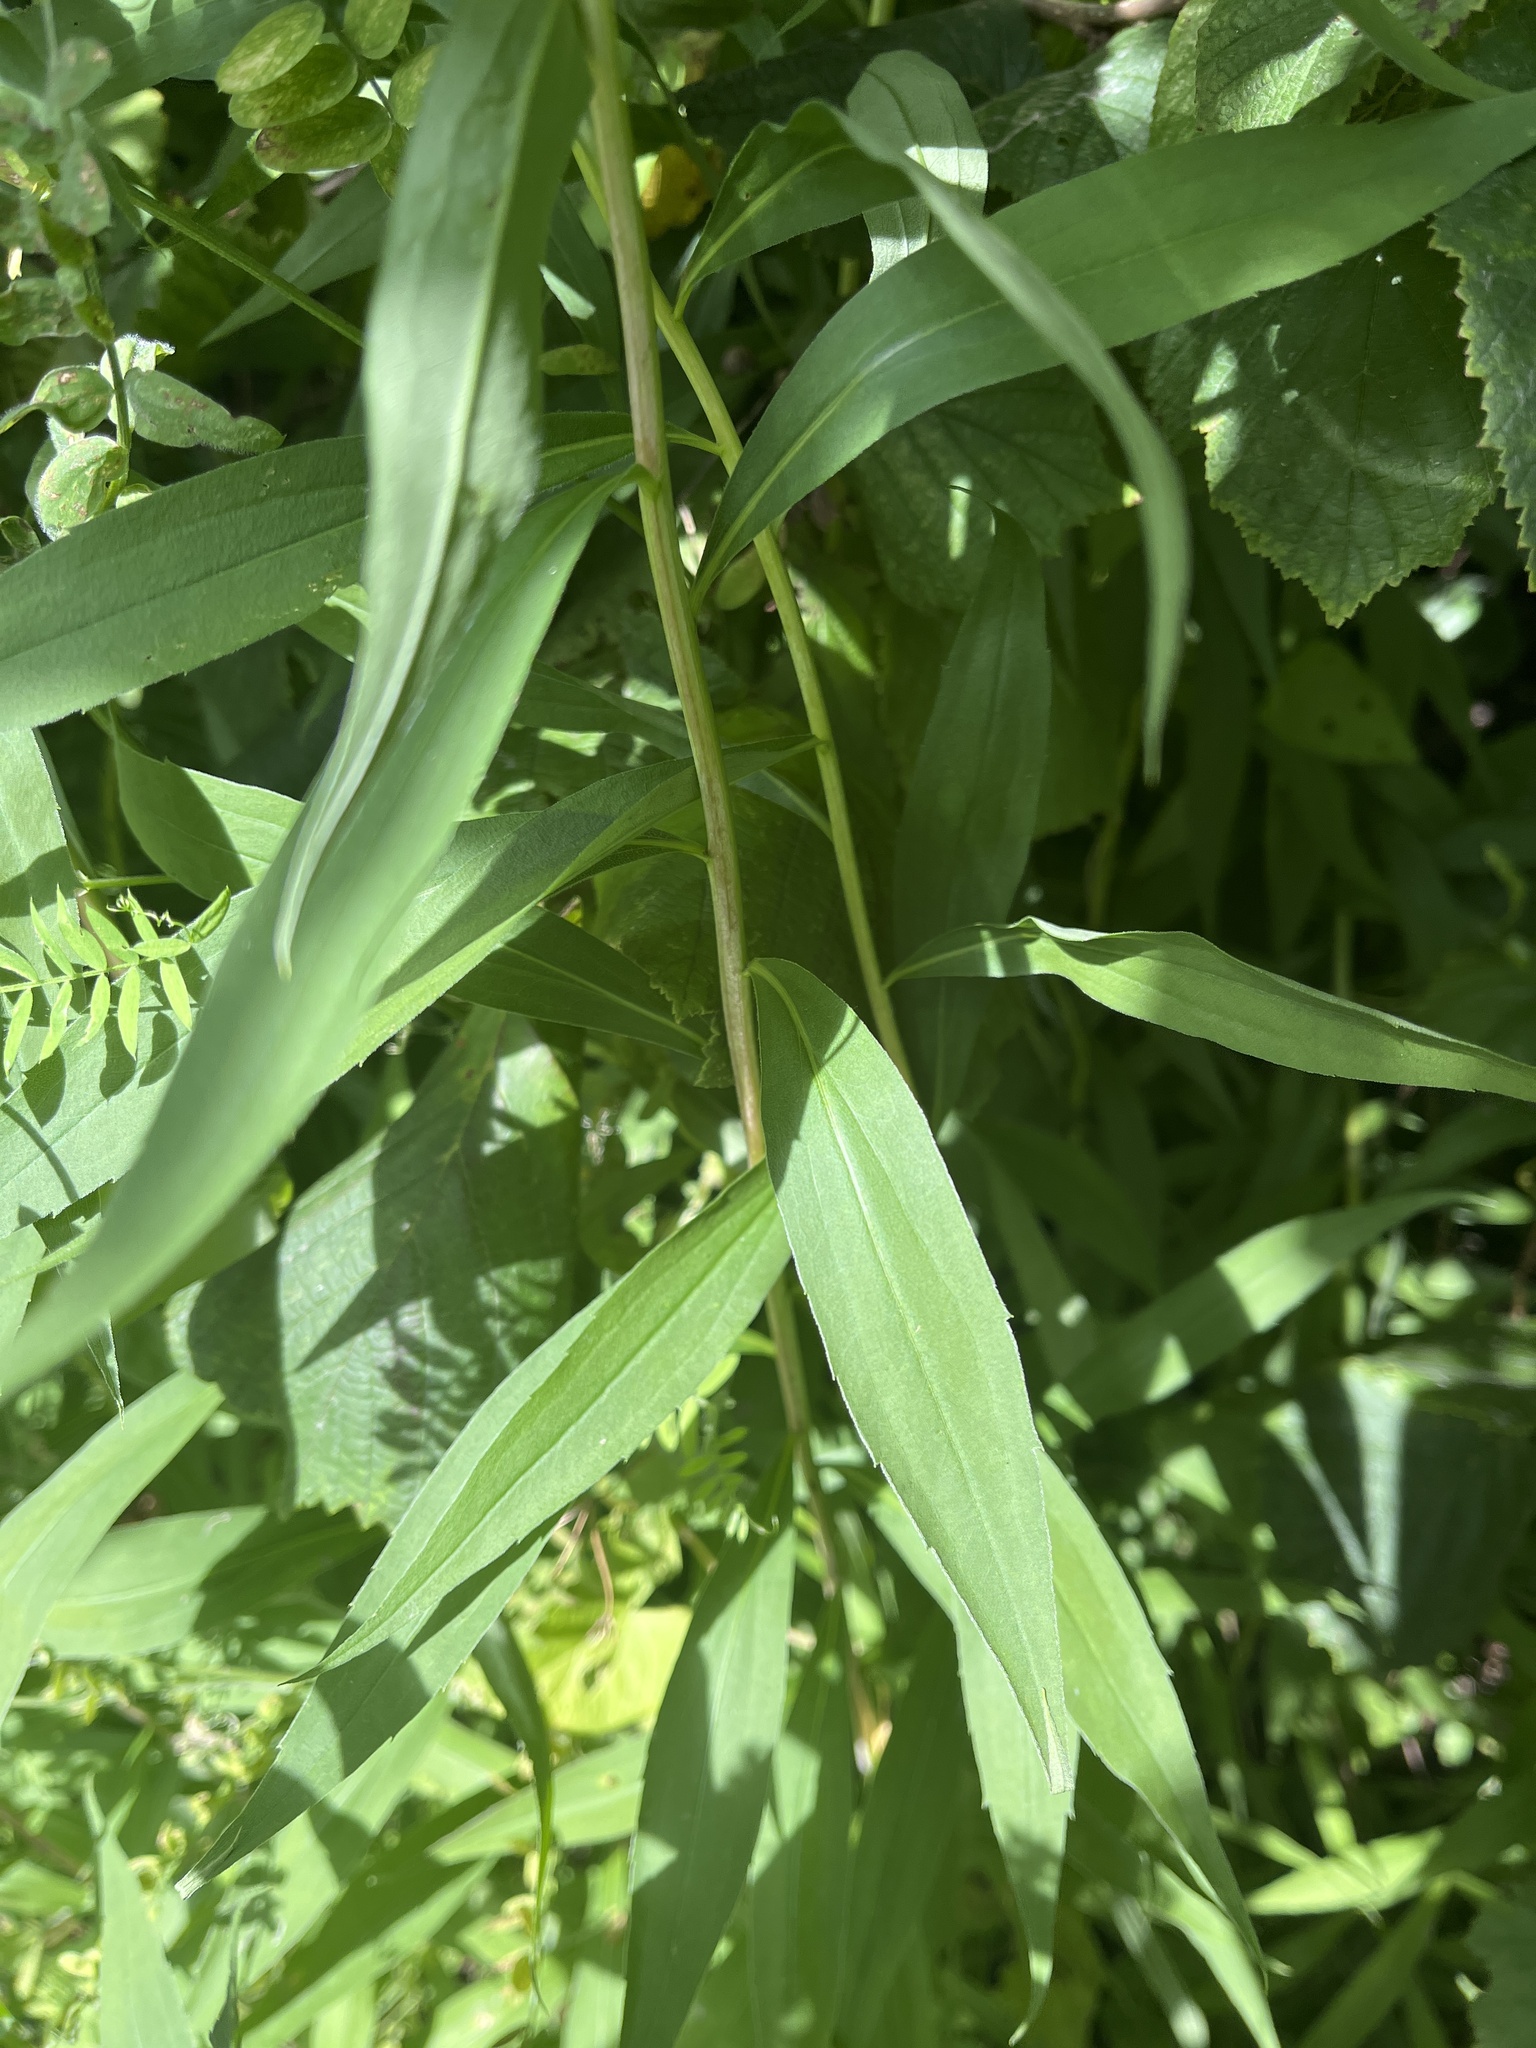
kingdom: Plantae
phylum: Tracheophyta
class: Magnoliopsida
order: Asterales
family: Asteraceae
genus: Solidago
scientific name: Solidago gigantea
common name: Giant goldenrod
